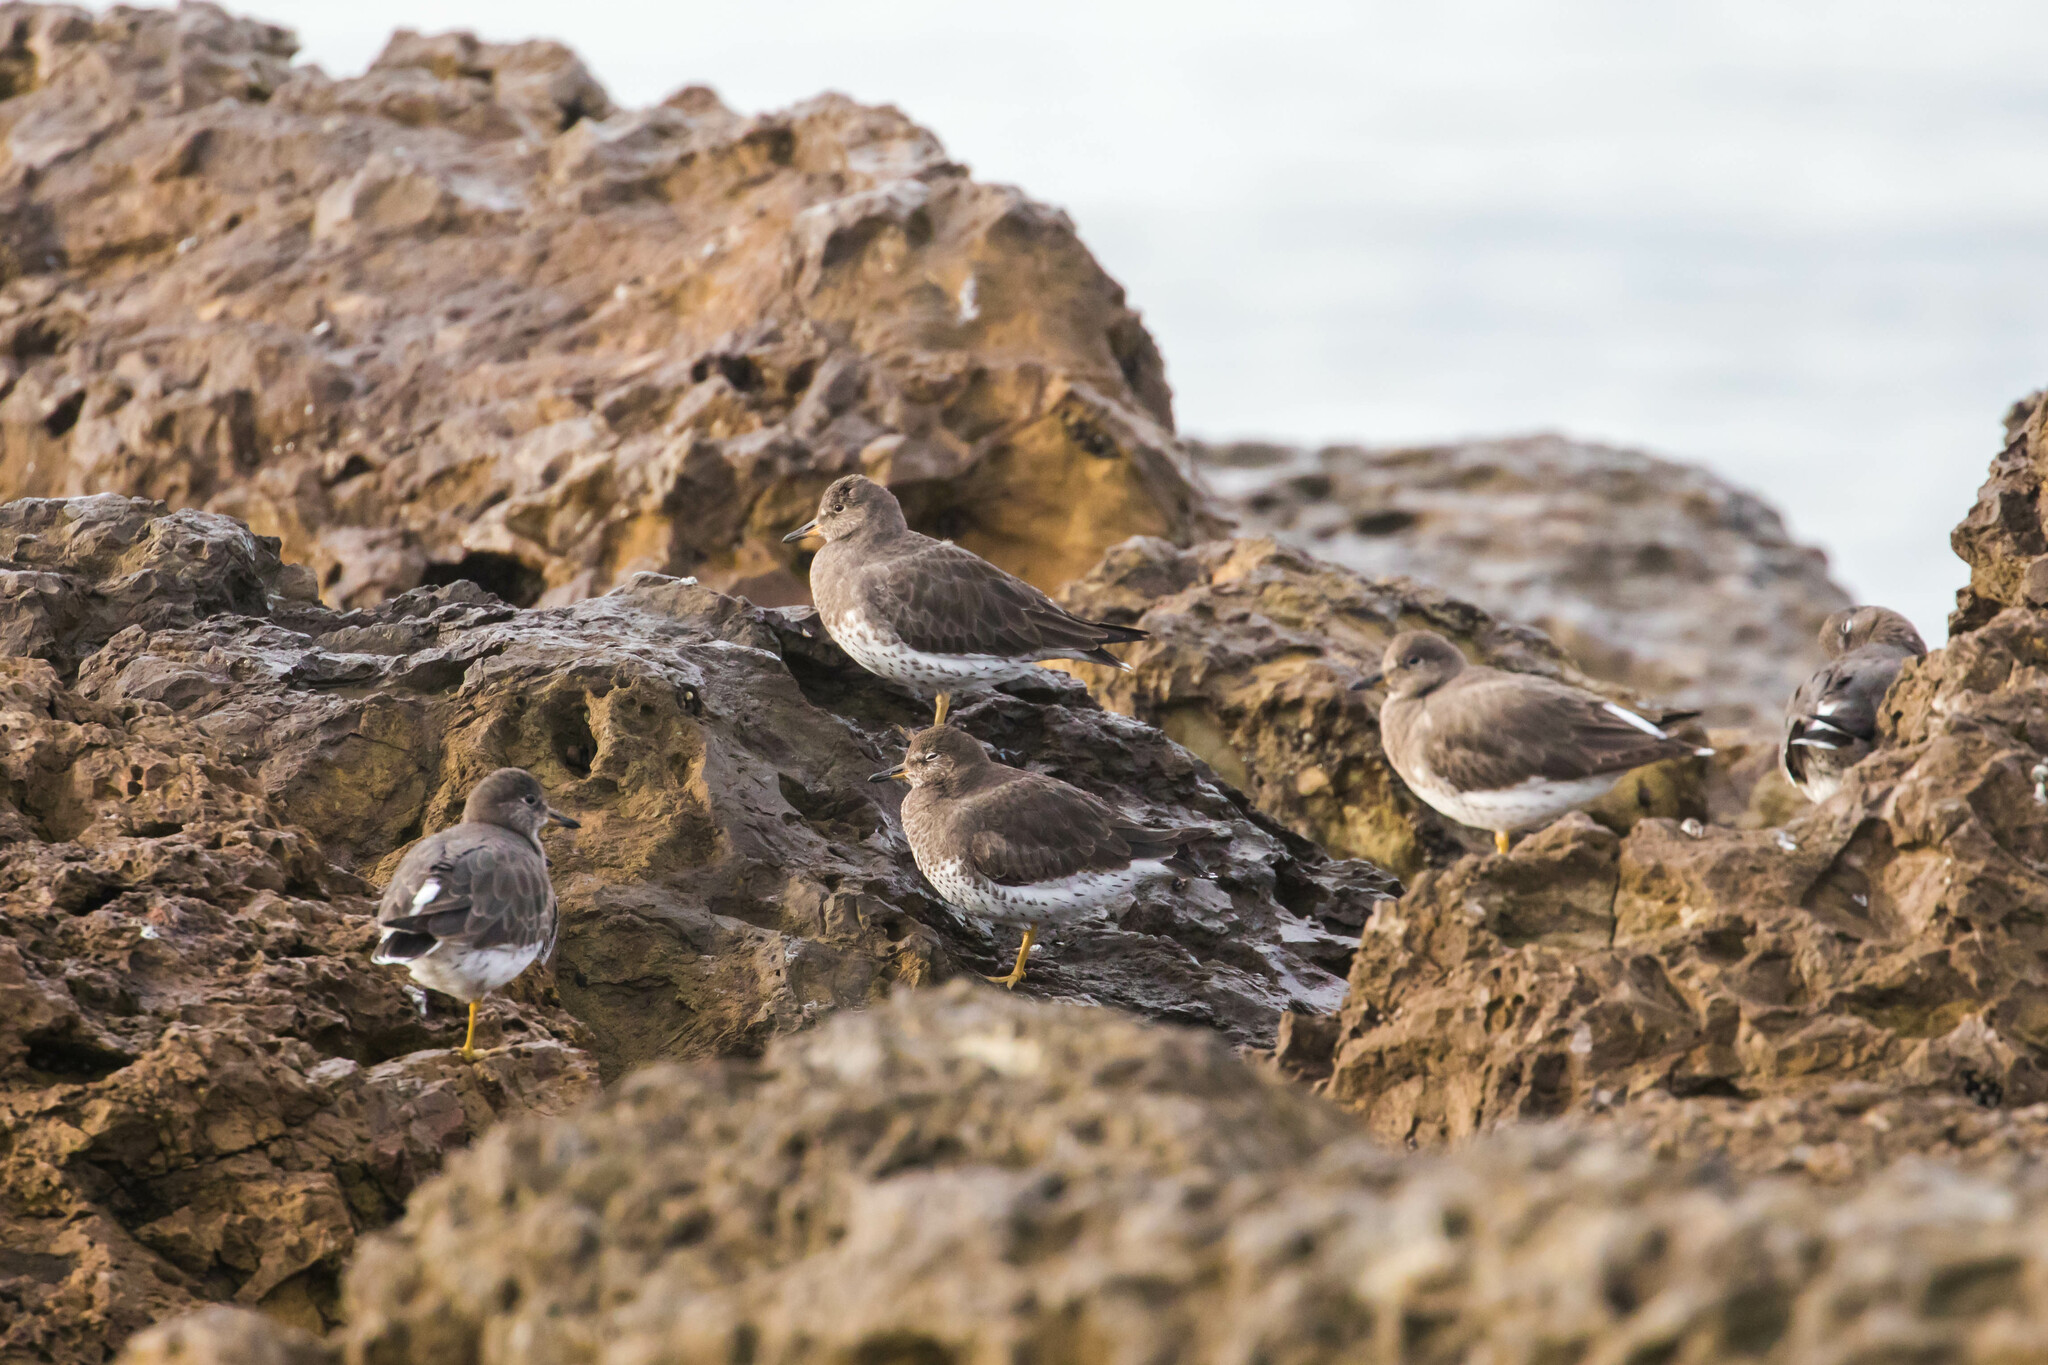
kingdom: Animalia
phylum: Chordata
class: Aves
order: Charadriiformes
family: Scolopacidae
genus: Calidris
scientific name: Calidris virgata
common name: Surfbird
